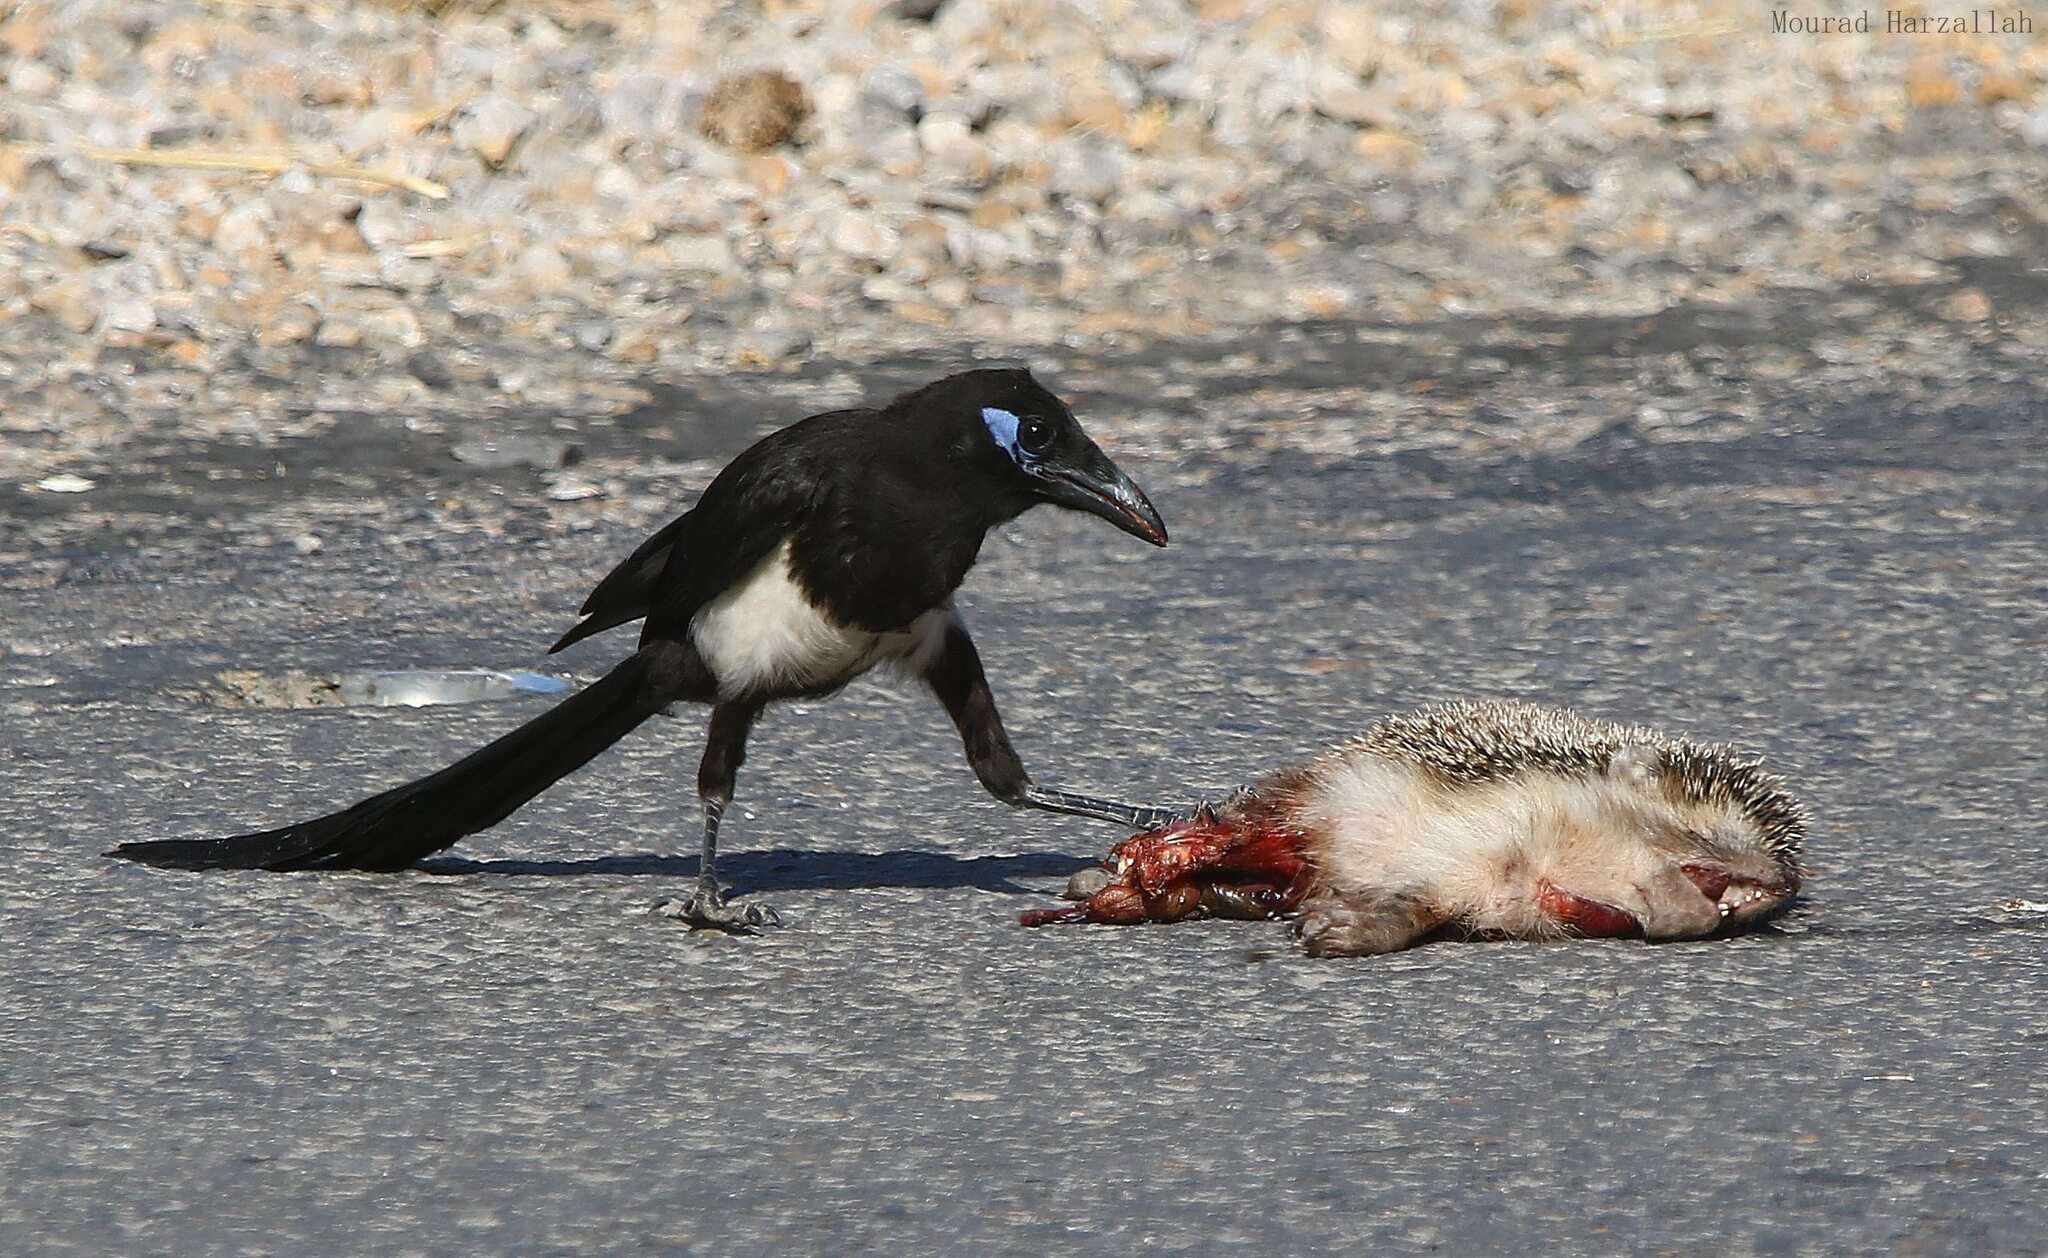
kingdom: Animalia
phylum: Chordata
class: Aves
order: Passeriformes
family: Corvidae
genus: Pica
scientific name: Pica mauritanica
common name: Maghreb magpie
